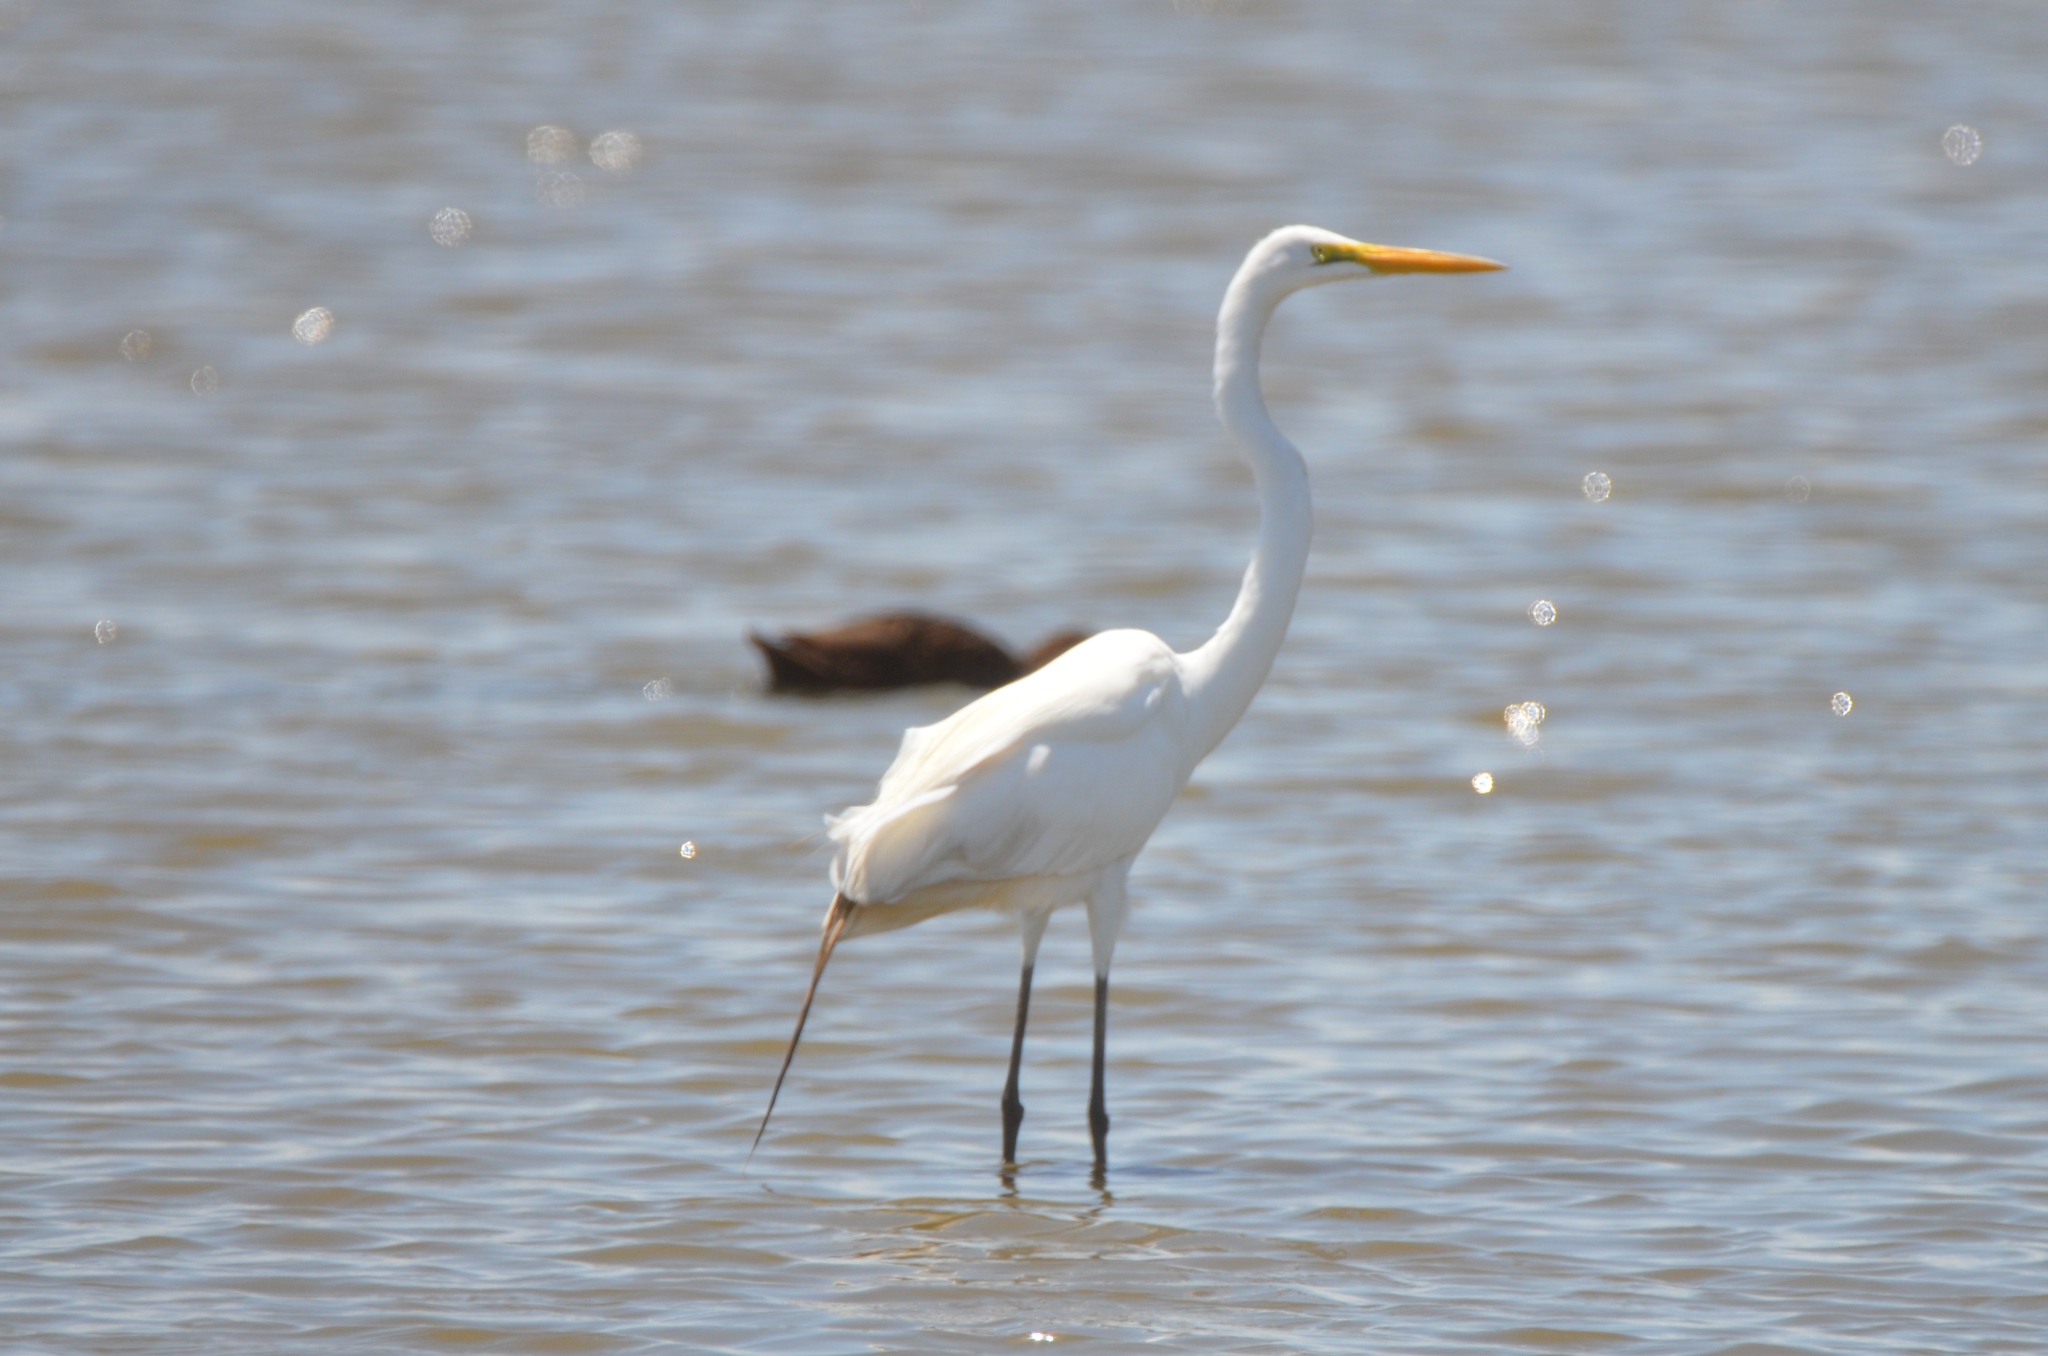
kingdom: Animalia
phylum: Chordata
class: Aves
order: Pelecaniformes
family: Ardeidae
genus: Ardea
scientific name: Ardea alba
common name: Great egret
